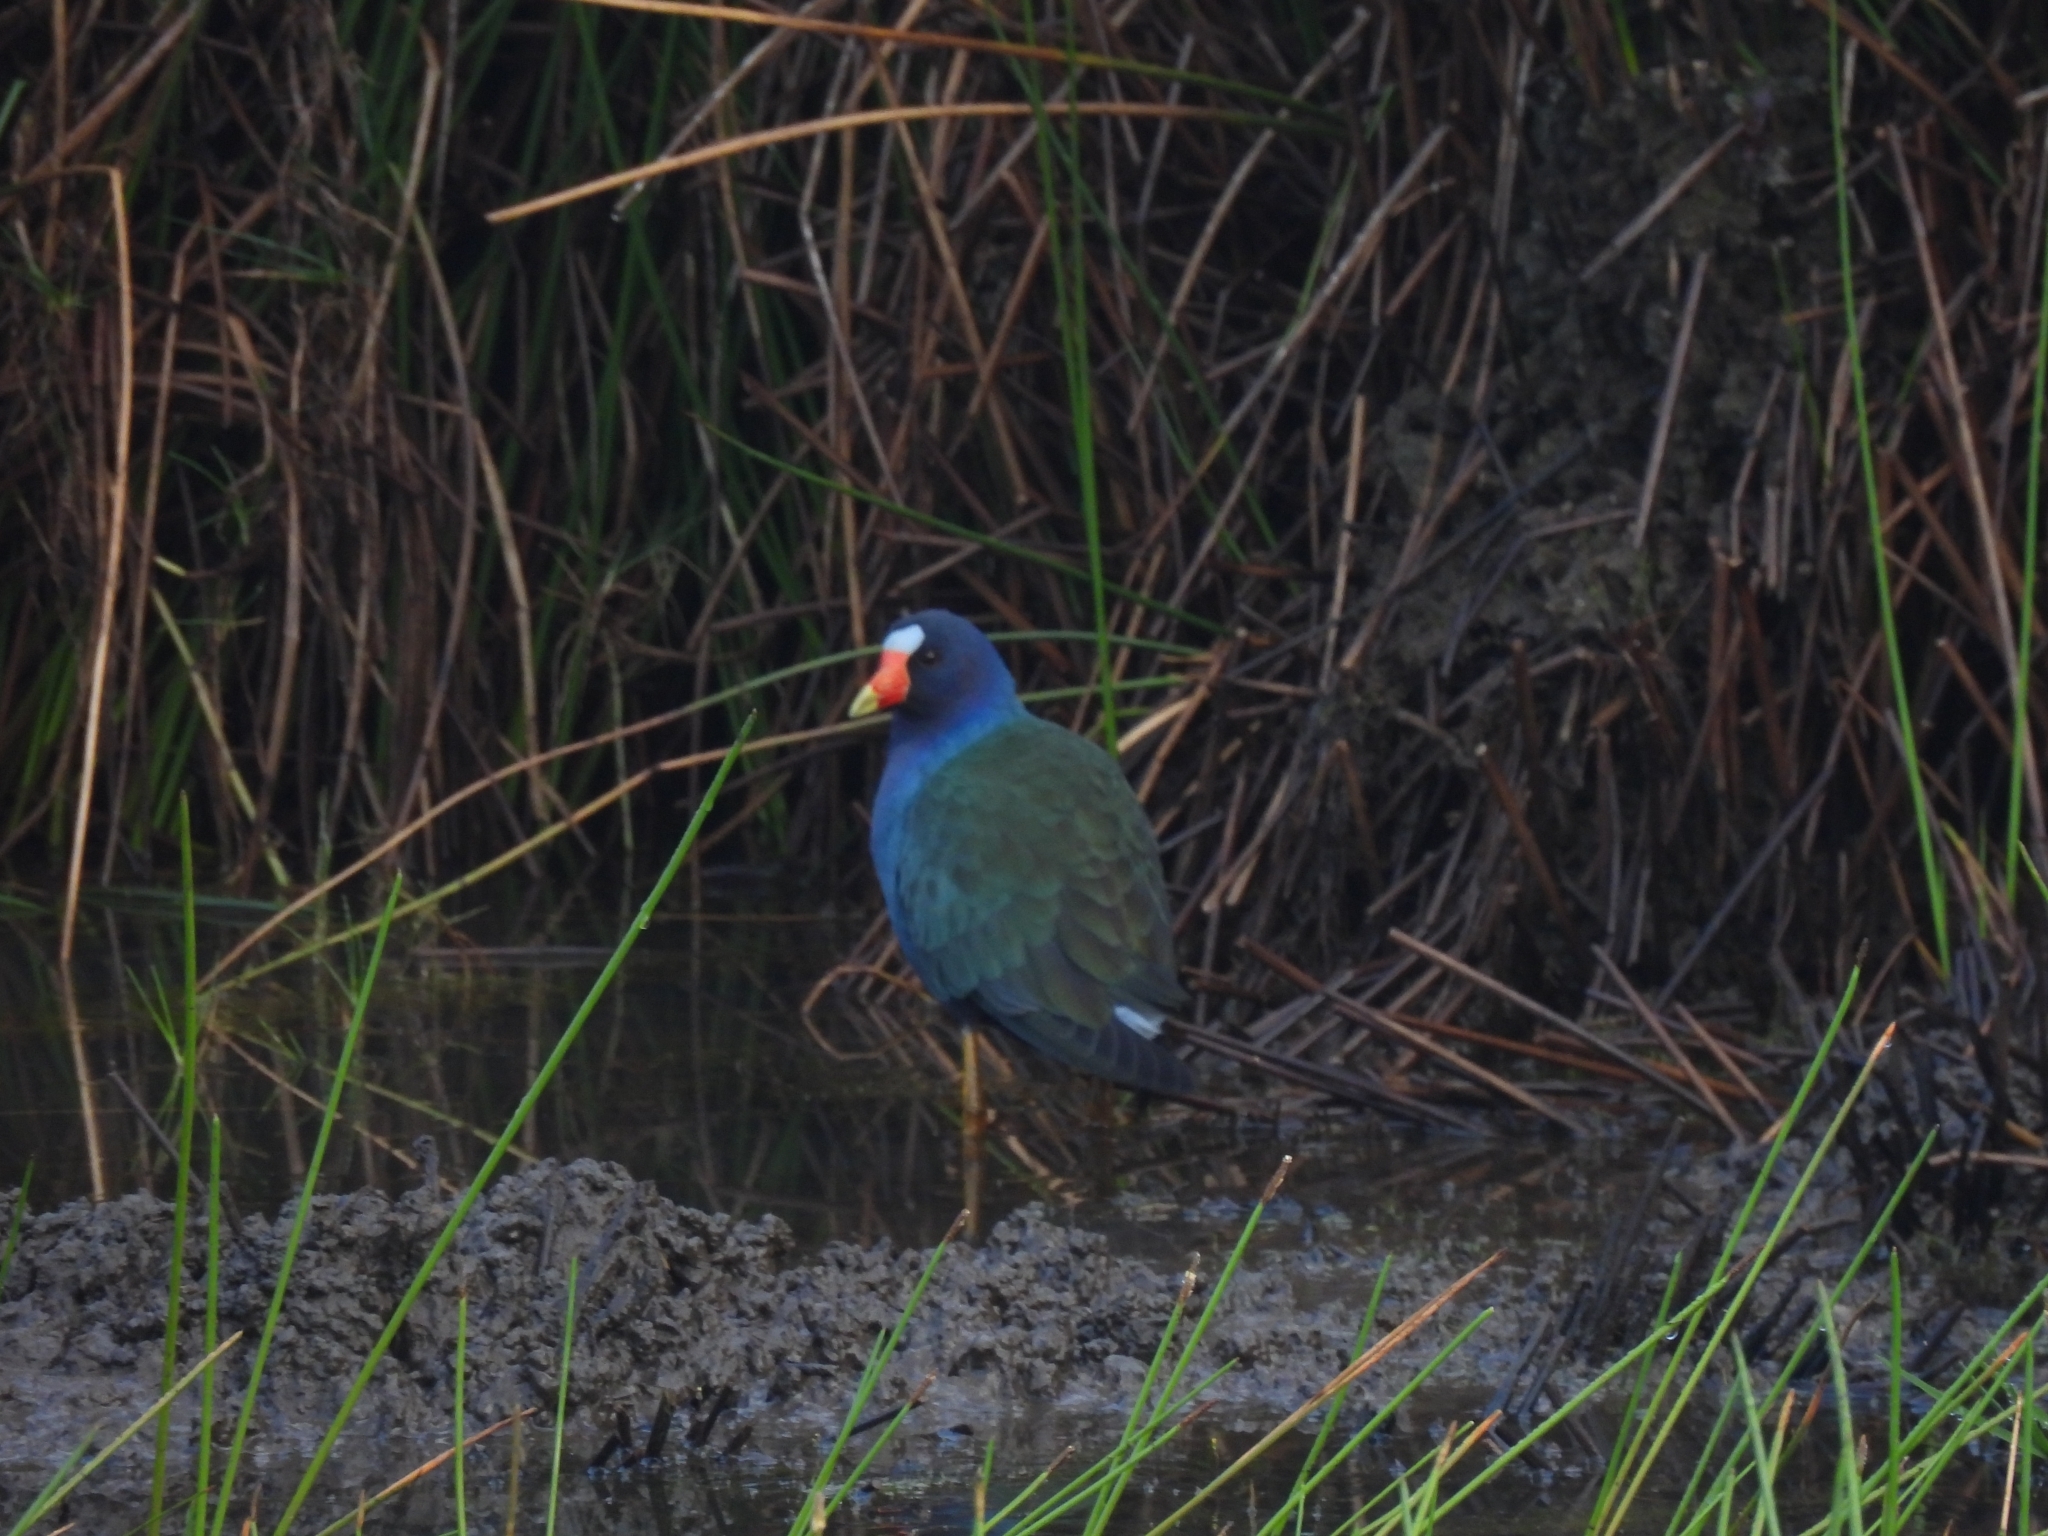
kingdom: Animalia
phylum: Chordata
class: Aves
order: Gruiformes
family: Rallidae
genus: Porphyrio
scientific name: Porphyrio martinica
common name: Purple gallinule
